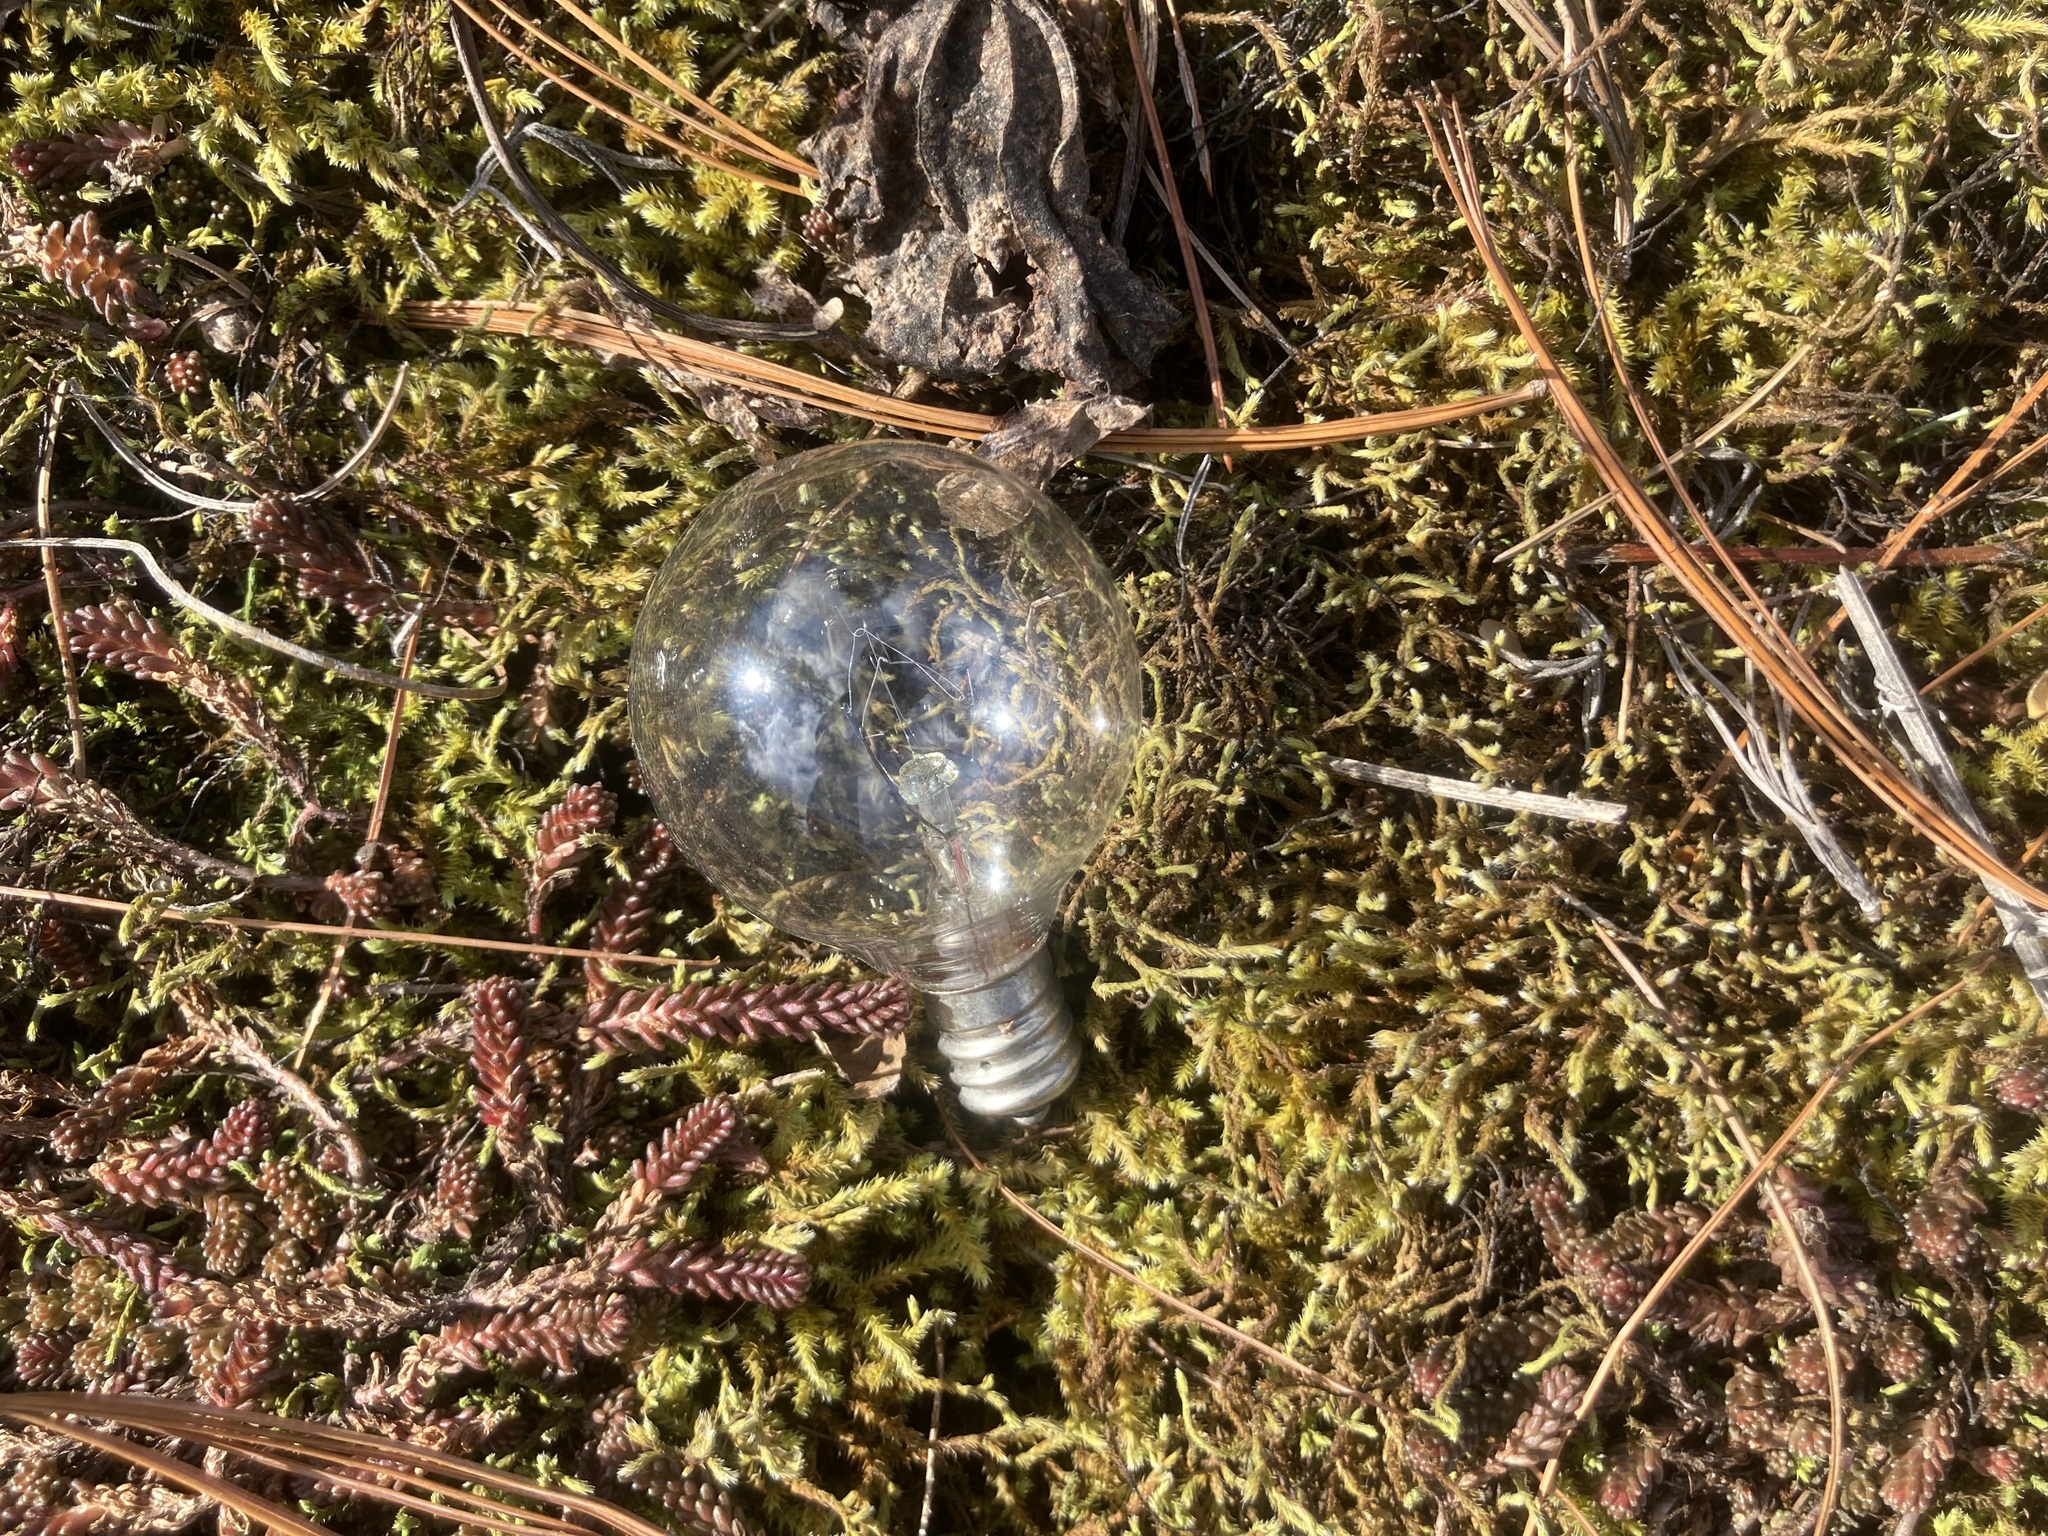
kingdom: Plantae
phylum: Bryophyta
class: Bryopsida
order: Hedwigiales
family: Hedwigiaceae
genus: Hedwigia
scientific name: Hedwigia ciliata
